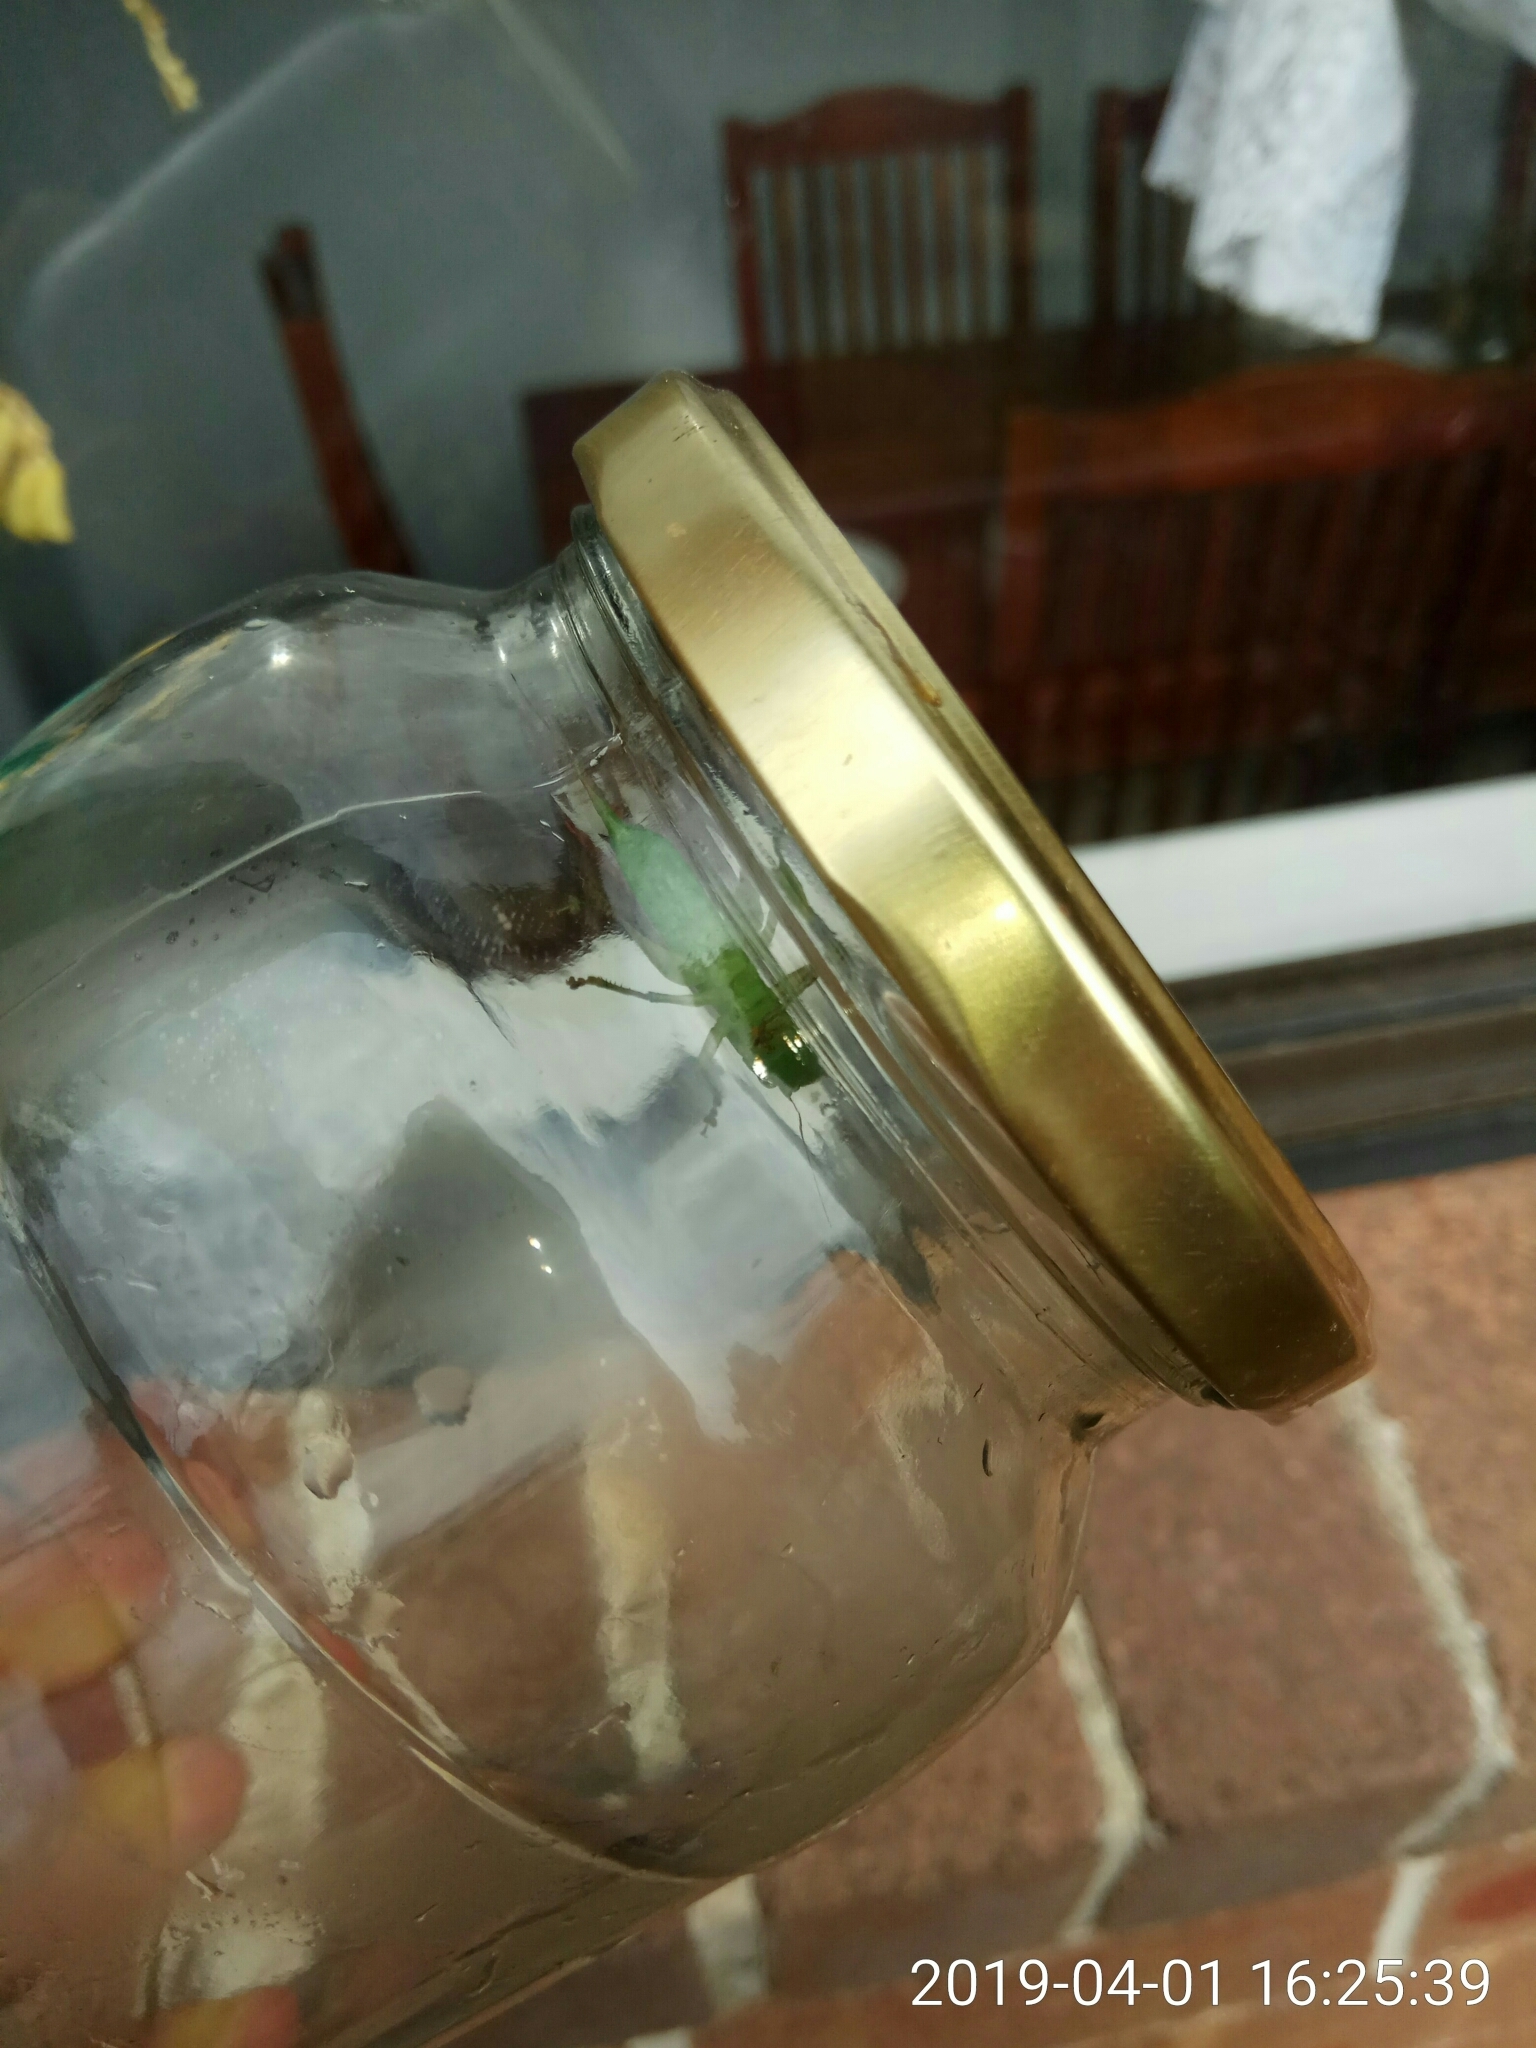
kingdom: Animalia
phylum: Arthropoda
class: Insecta
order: Orthoptera
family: Tettigoniidae
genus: Conocephalus
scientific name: Conocephalus semivittatus
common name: Blackish meadow katydid
